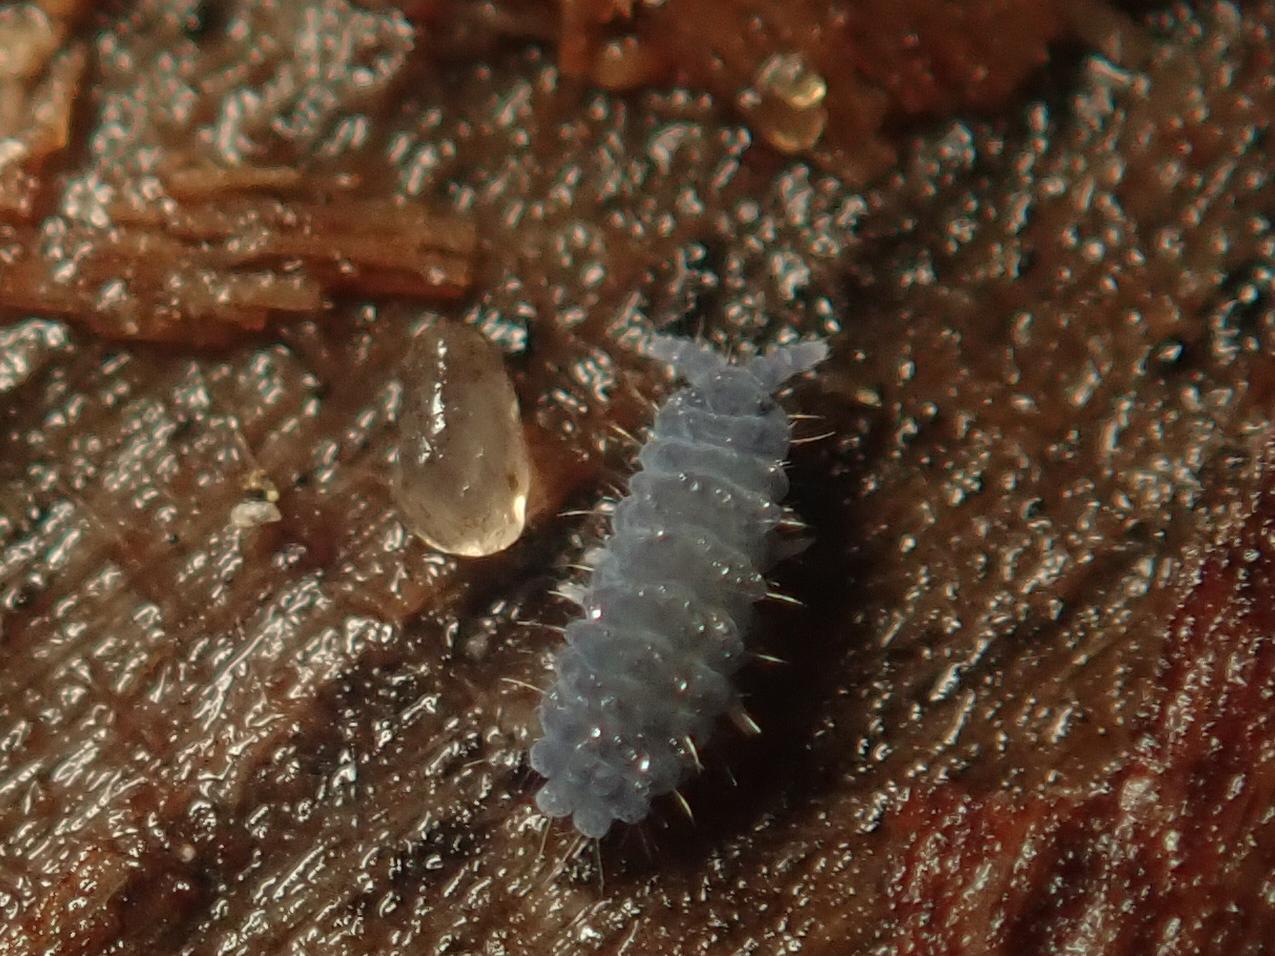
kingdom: Animalia
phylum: Arthropoda
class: Collembola
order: Poduromorpha
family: Neanuridae
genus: Neanura
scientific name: Neanura muscorum
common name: Springtail
